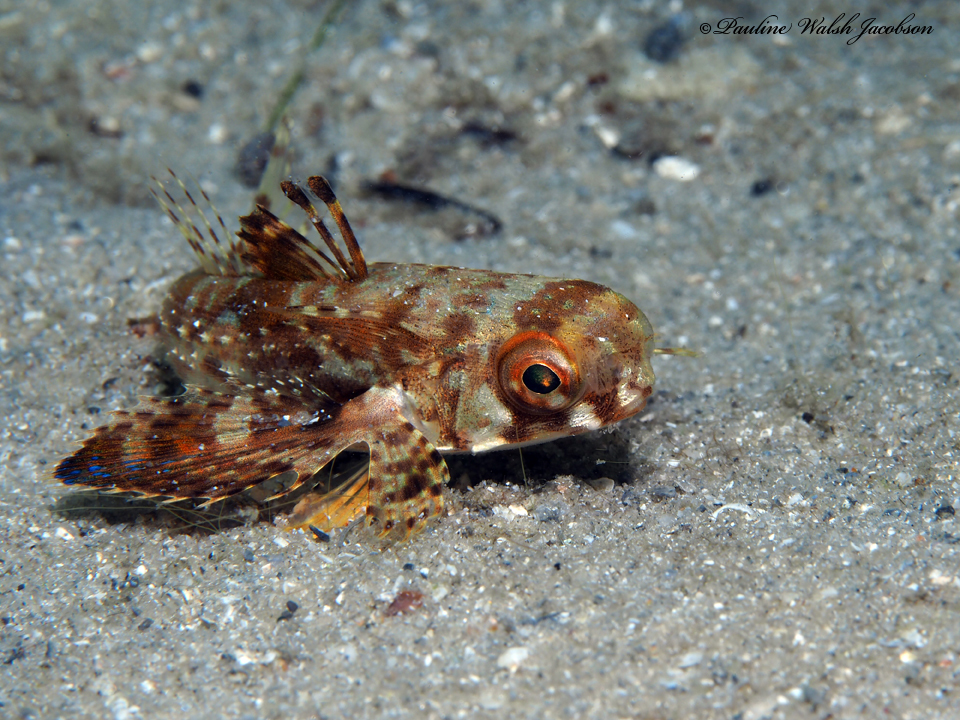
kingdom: Animalia
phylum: Chordata
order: Scorpaeniformes
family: Dactylopteridae
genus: Dactylopterus
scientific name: Dactylopterus volitans
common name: Flying gurnard
